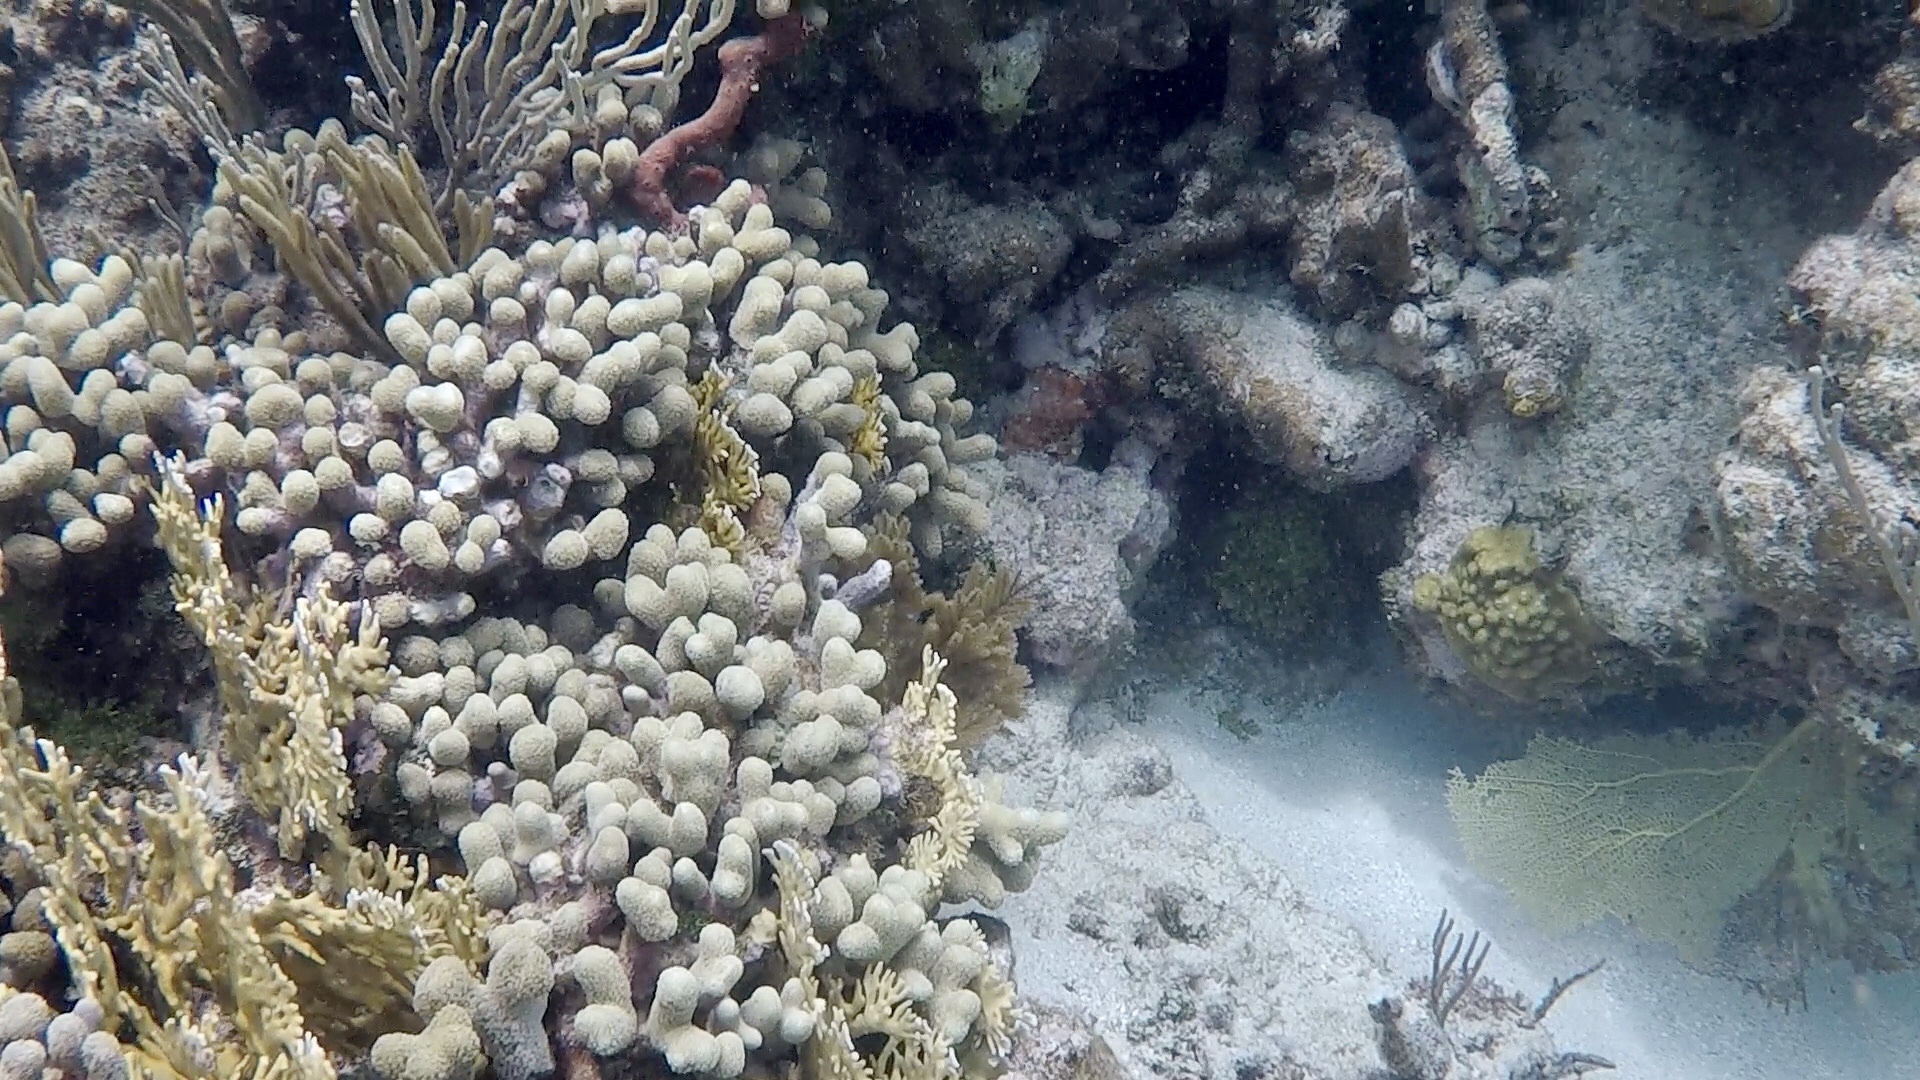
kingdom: Animalia
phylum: Cnidaria
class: Anthozoa
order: Scleractinia
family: Poritidae
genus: Porites
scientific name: Porites porites
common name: Finger coral
